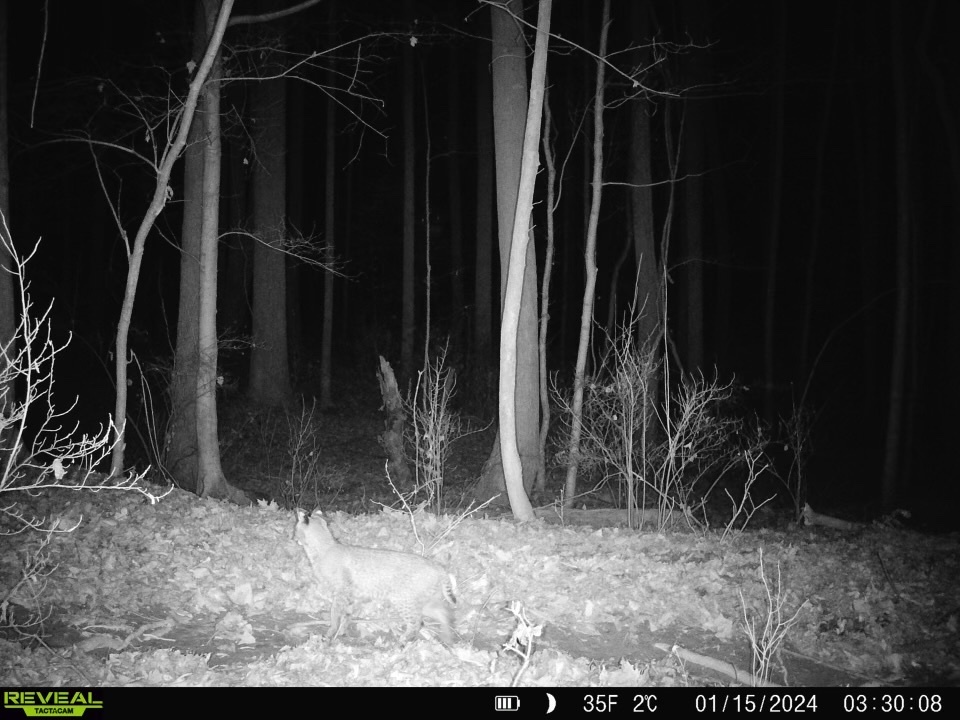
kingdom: Animalia
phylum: Chordata
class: Mammalia
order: Carnivora
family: Felidae
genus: Lynx
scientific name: Lynx rufus
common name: Bobcat
